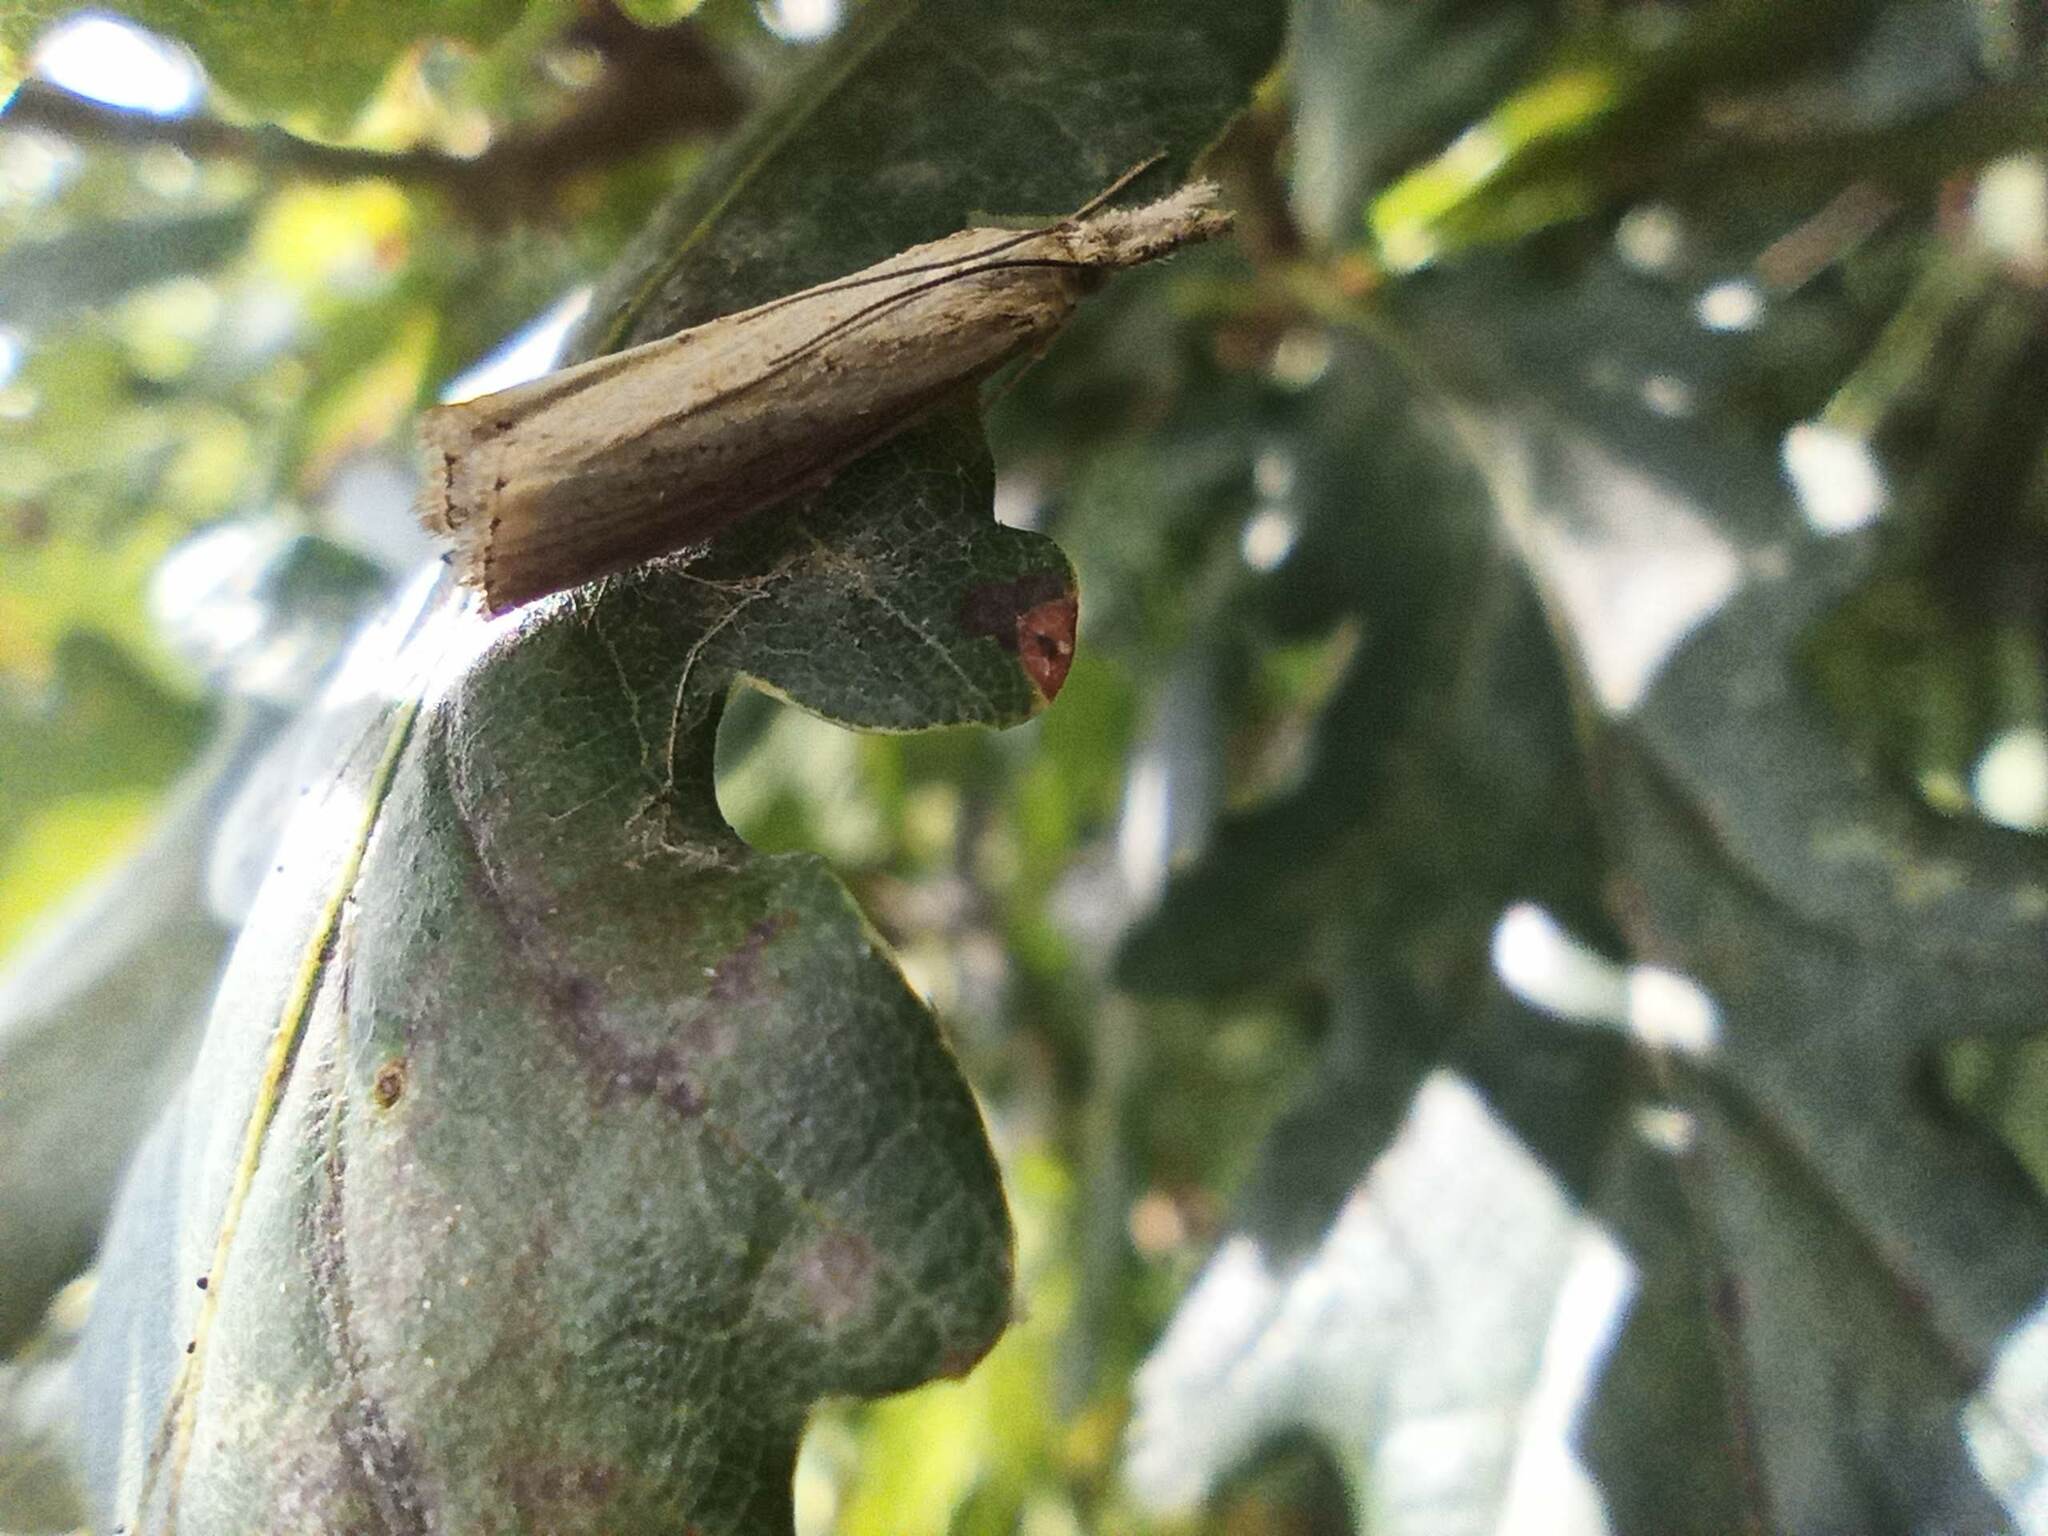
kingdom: Animalia
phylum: Arthropoda
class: Insecta
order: Lepidoptera
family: Crambidae
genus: Agriphila
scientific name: Agriphila straminella
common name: Straw grass-veneer
